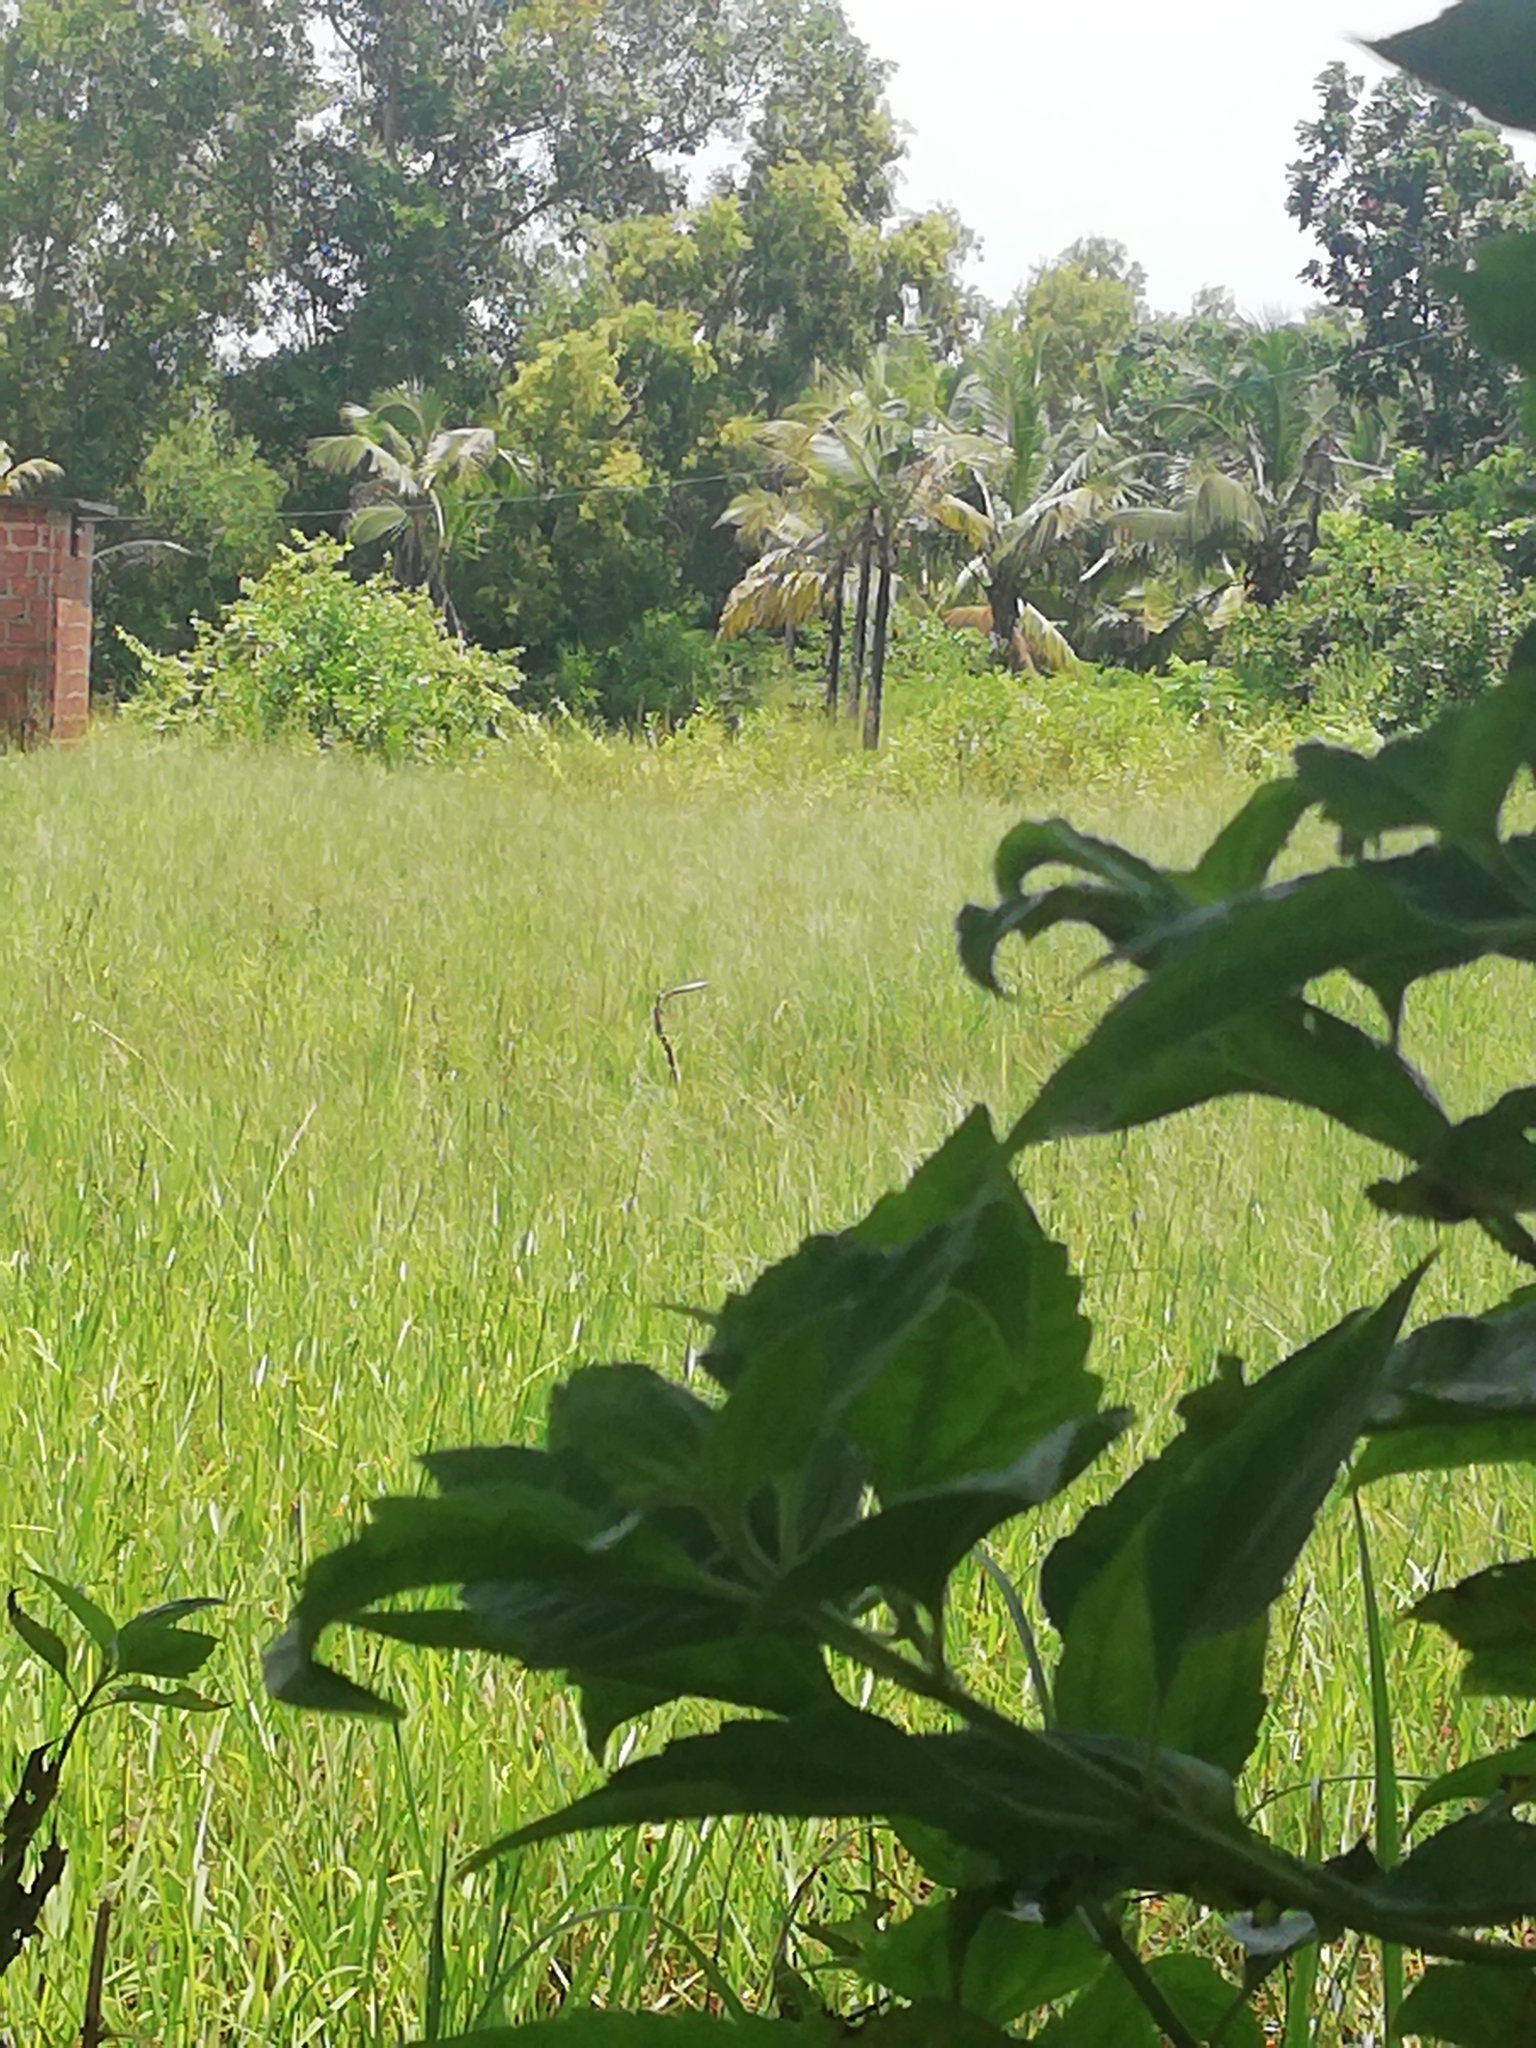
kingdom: Animalia
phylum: Chordata
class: Aves
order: Pelecaniformes
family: Ardeidae
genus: Ardea
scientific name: Ardea purpurea
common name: Purple heron
